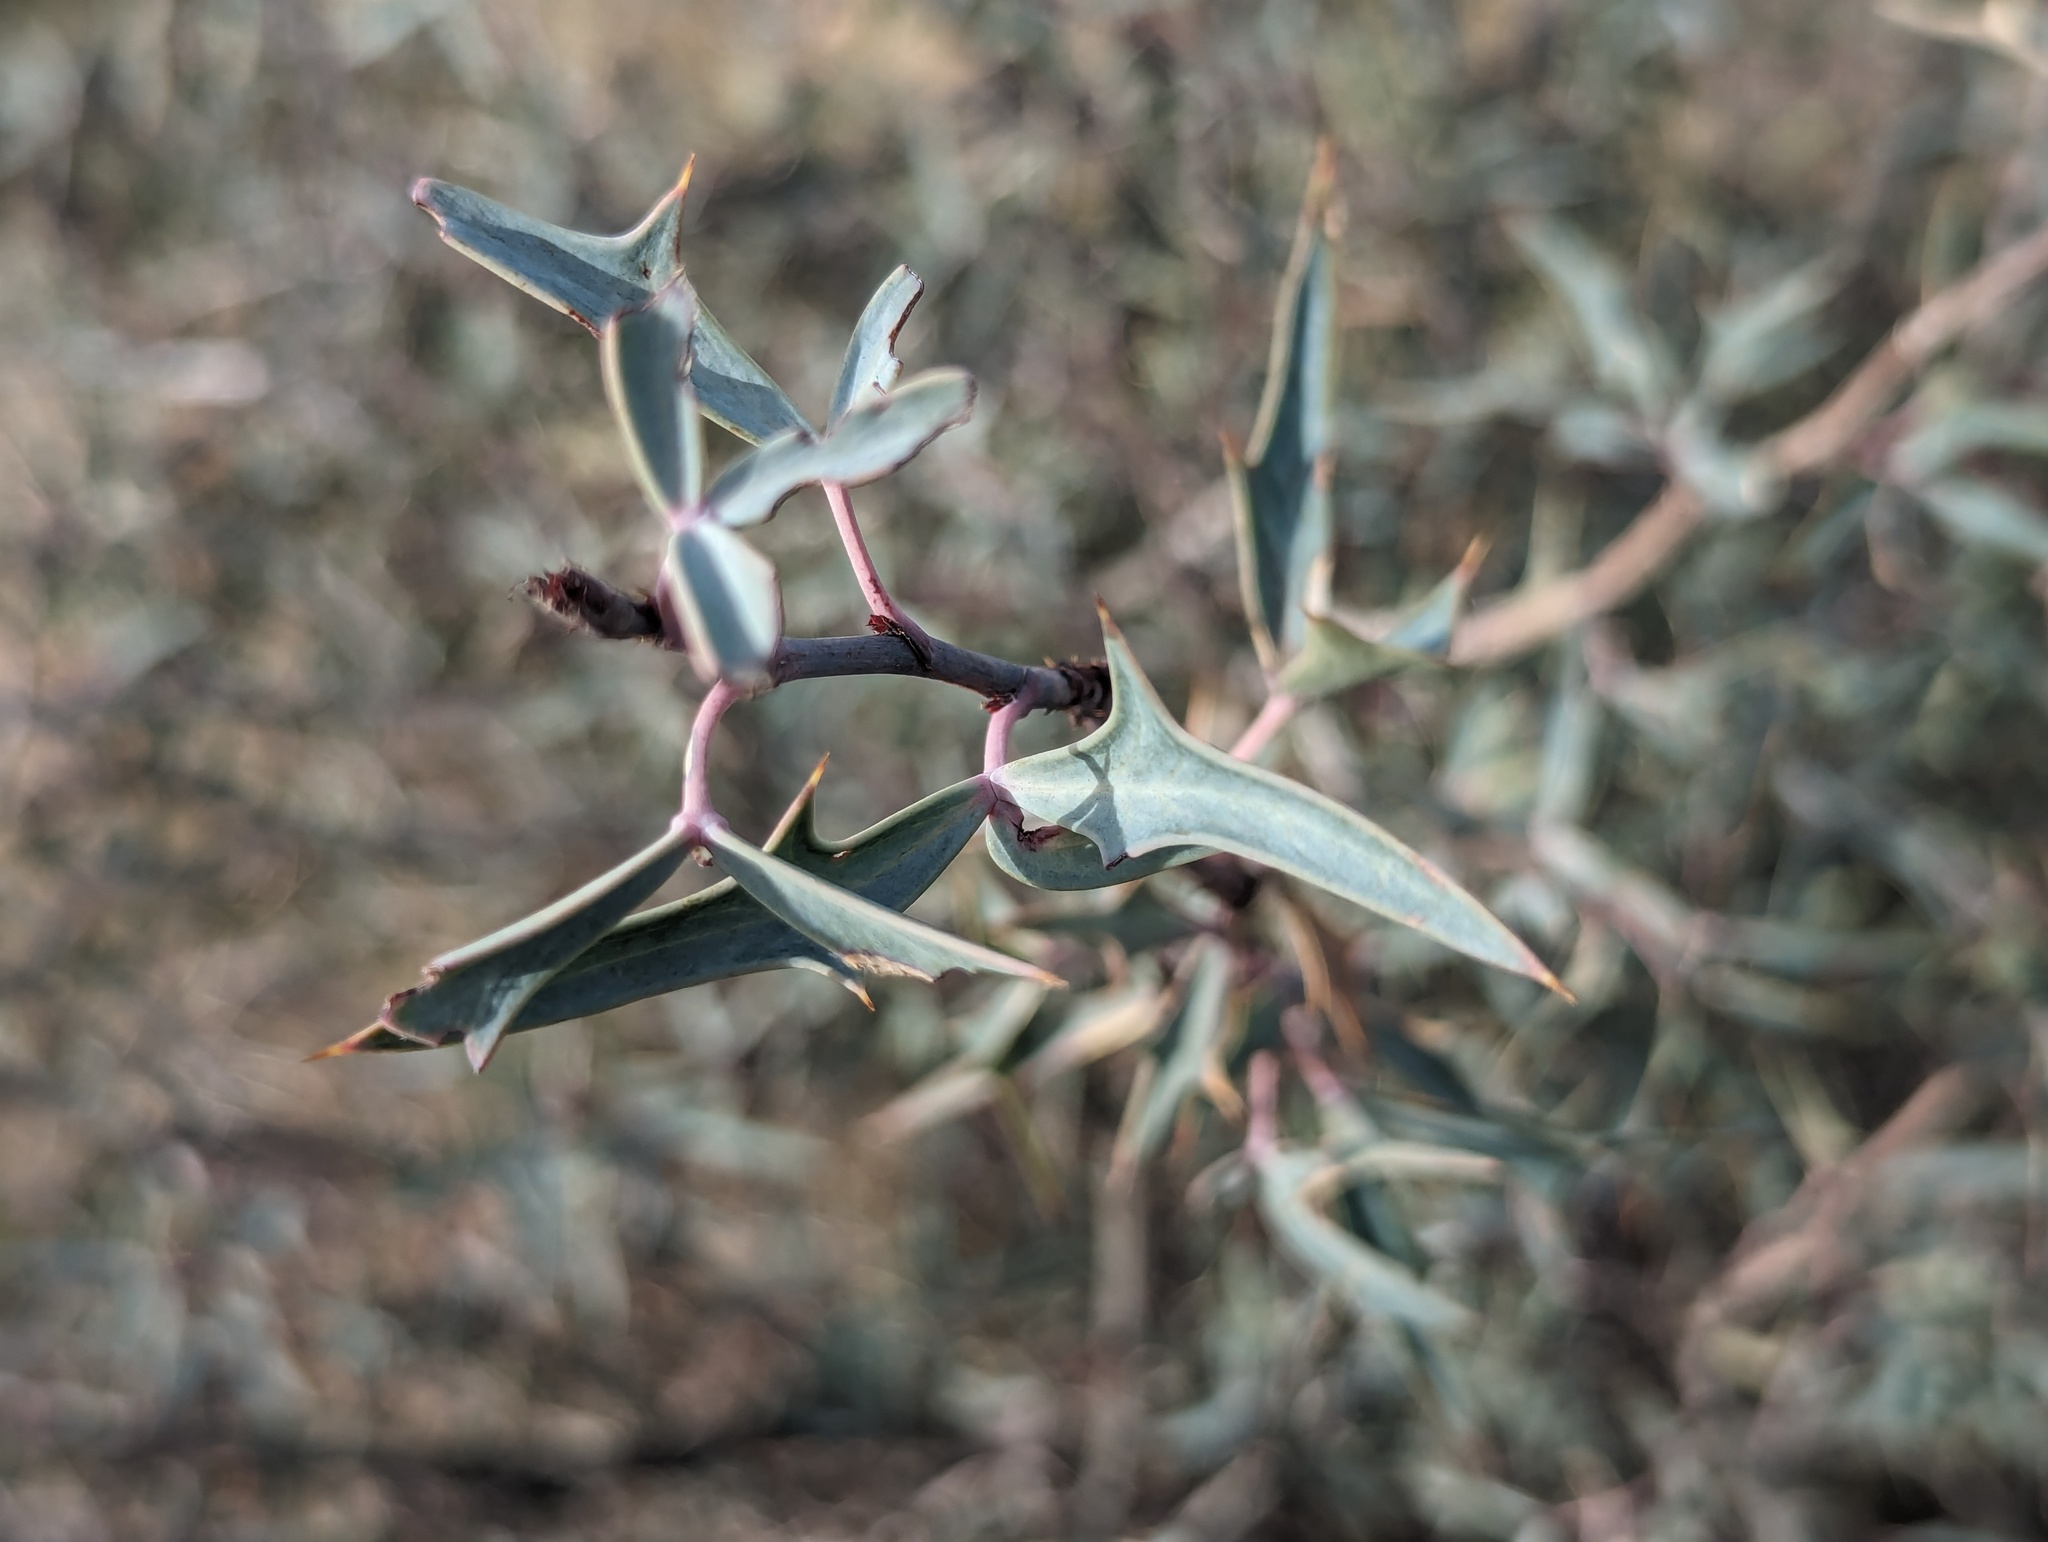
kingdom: Plantae
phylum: Tracheophyta
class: Magnoliopsida
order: Ranunculales
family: Berberidaceae
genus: Alloberberis
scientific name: Alloberberis trifoliolata
